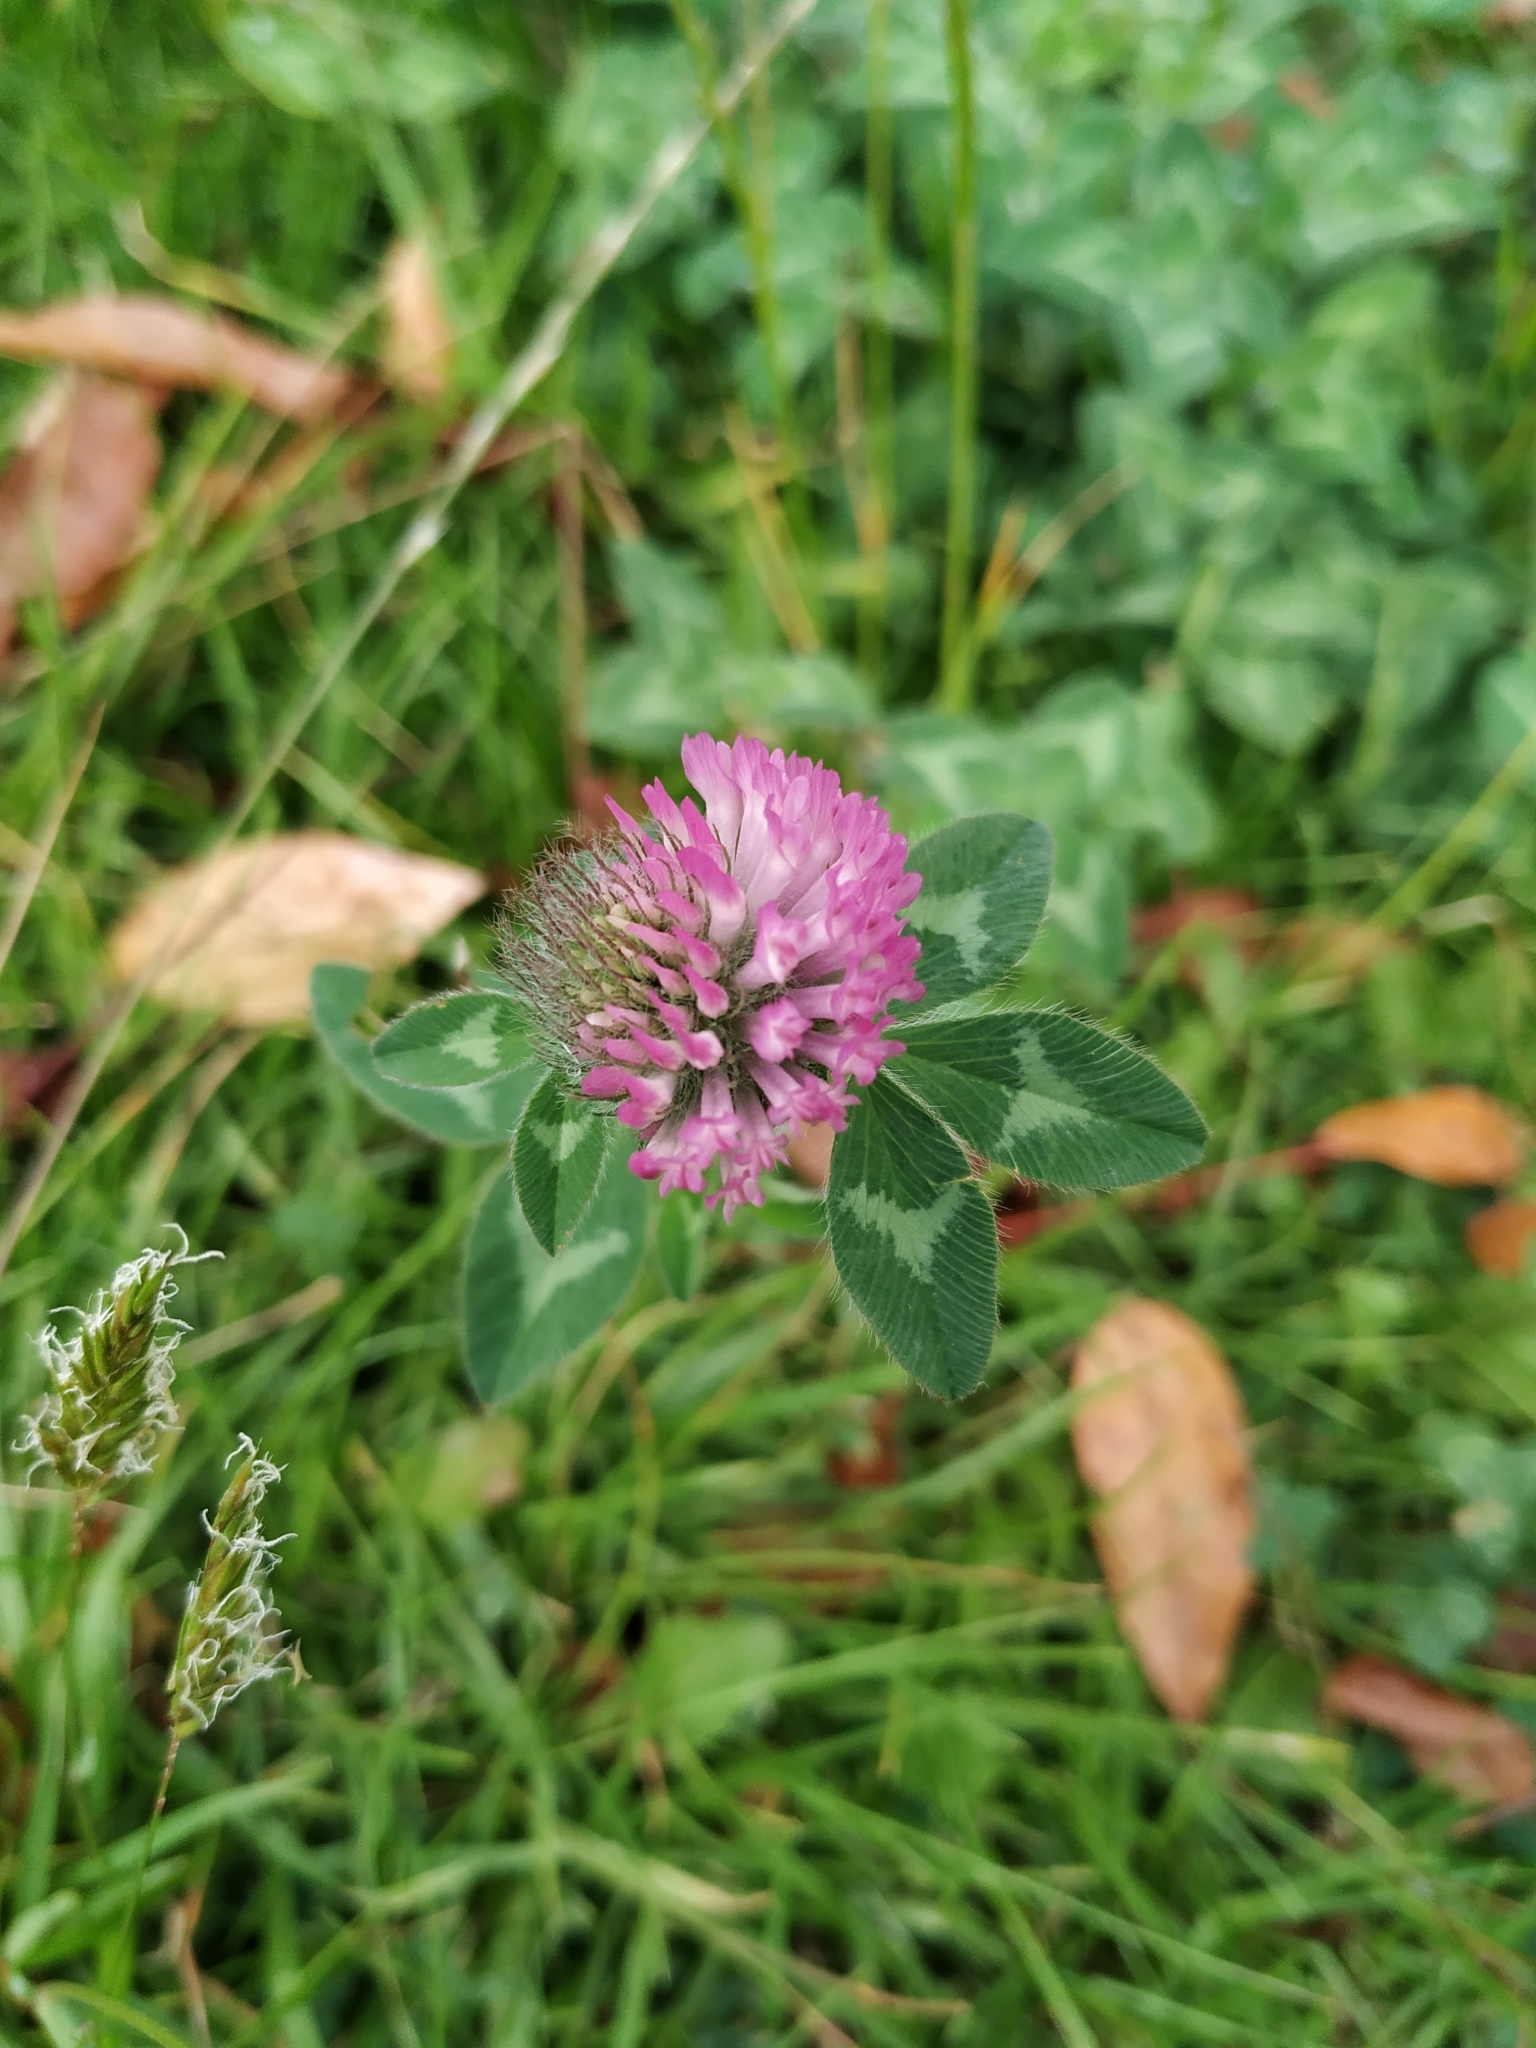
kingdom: Plantae
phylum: Tracheophyta
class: Magnoliopsida
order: Fabales
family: Fabaceae
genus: Trifolium
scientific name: Trifolium pratense
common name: Red clover
